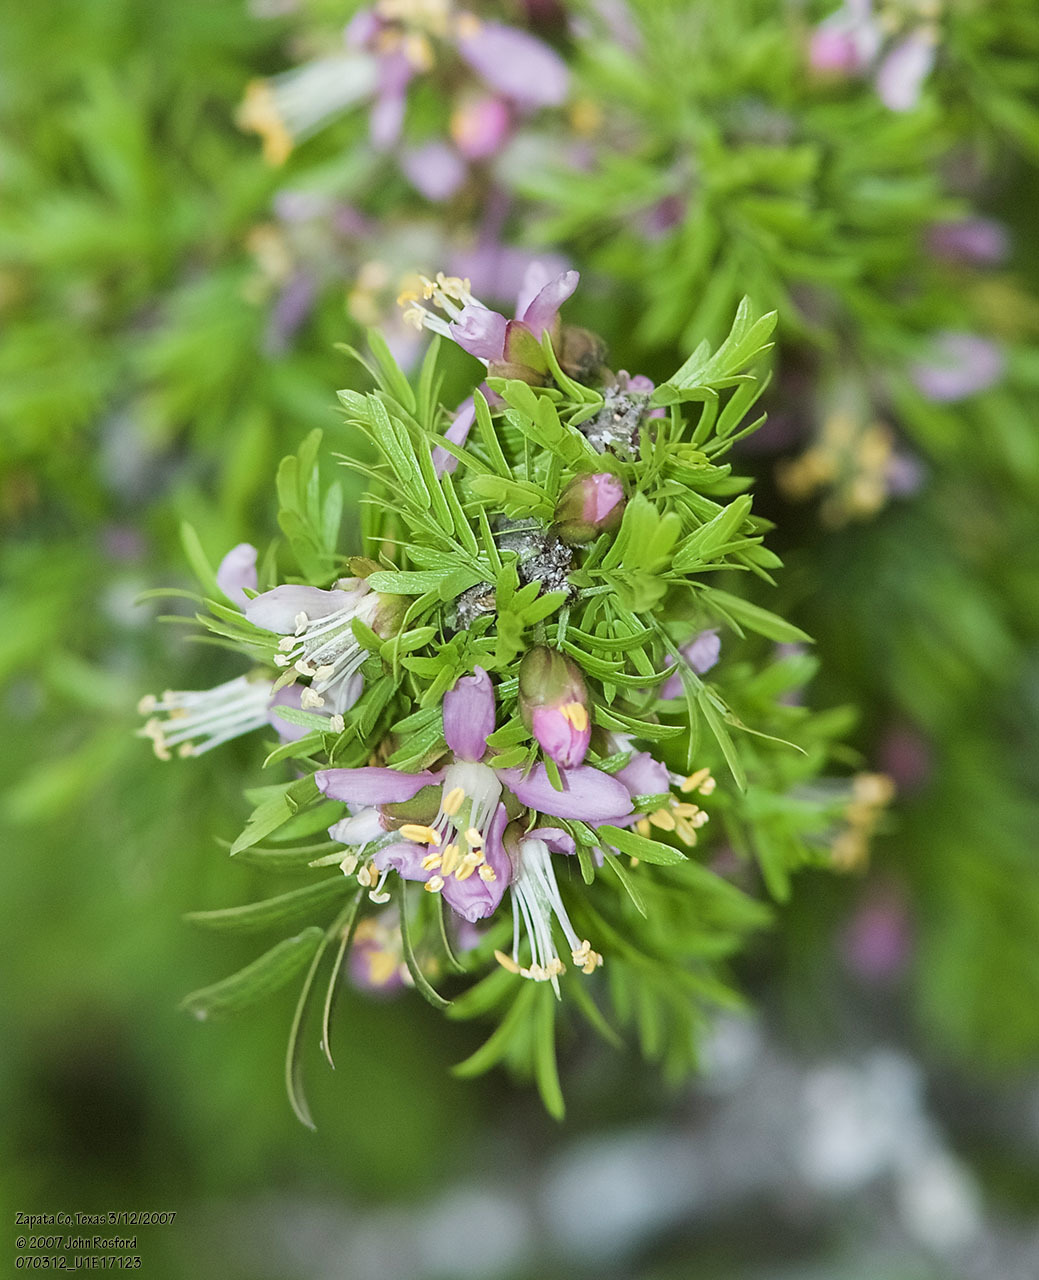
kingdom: Plantae
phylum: Tracheophyta
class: Magnoliopsida
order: Zygophyllales
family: Zygophyllaceae
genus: Porlieria
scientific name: Porlieria angustifolia
